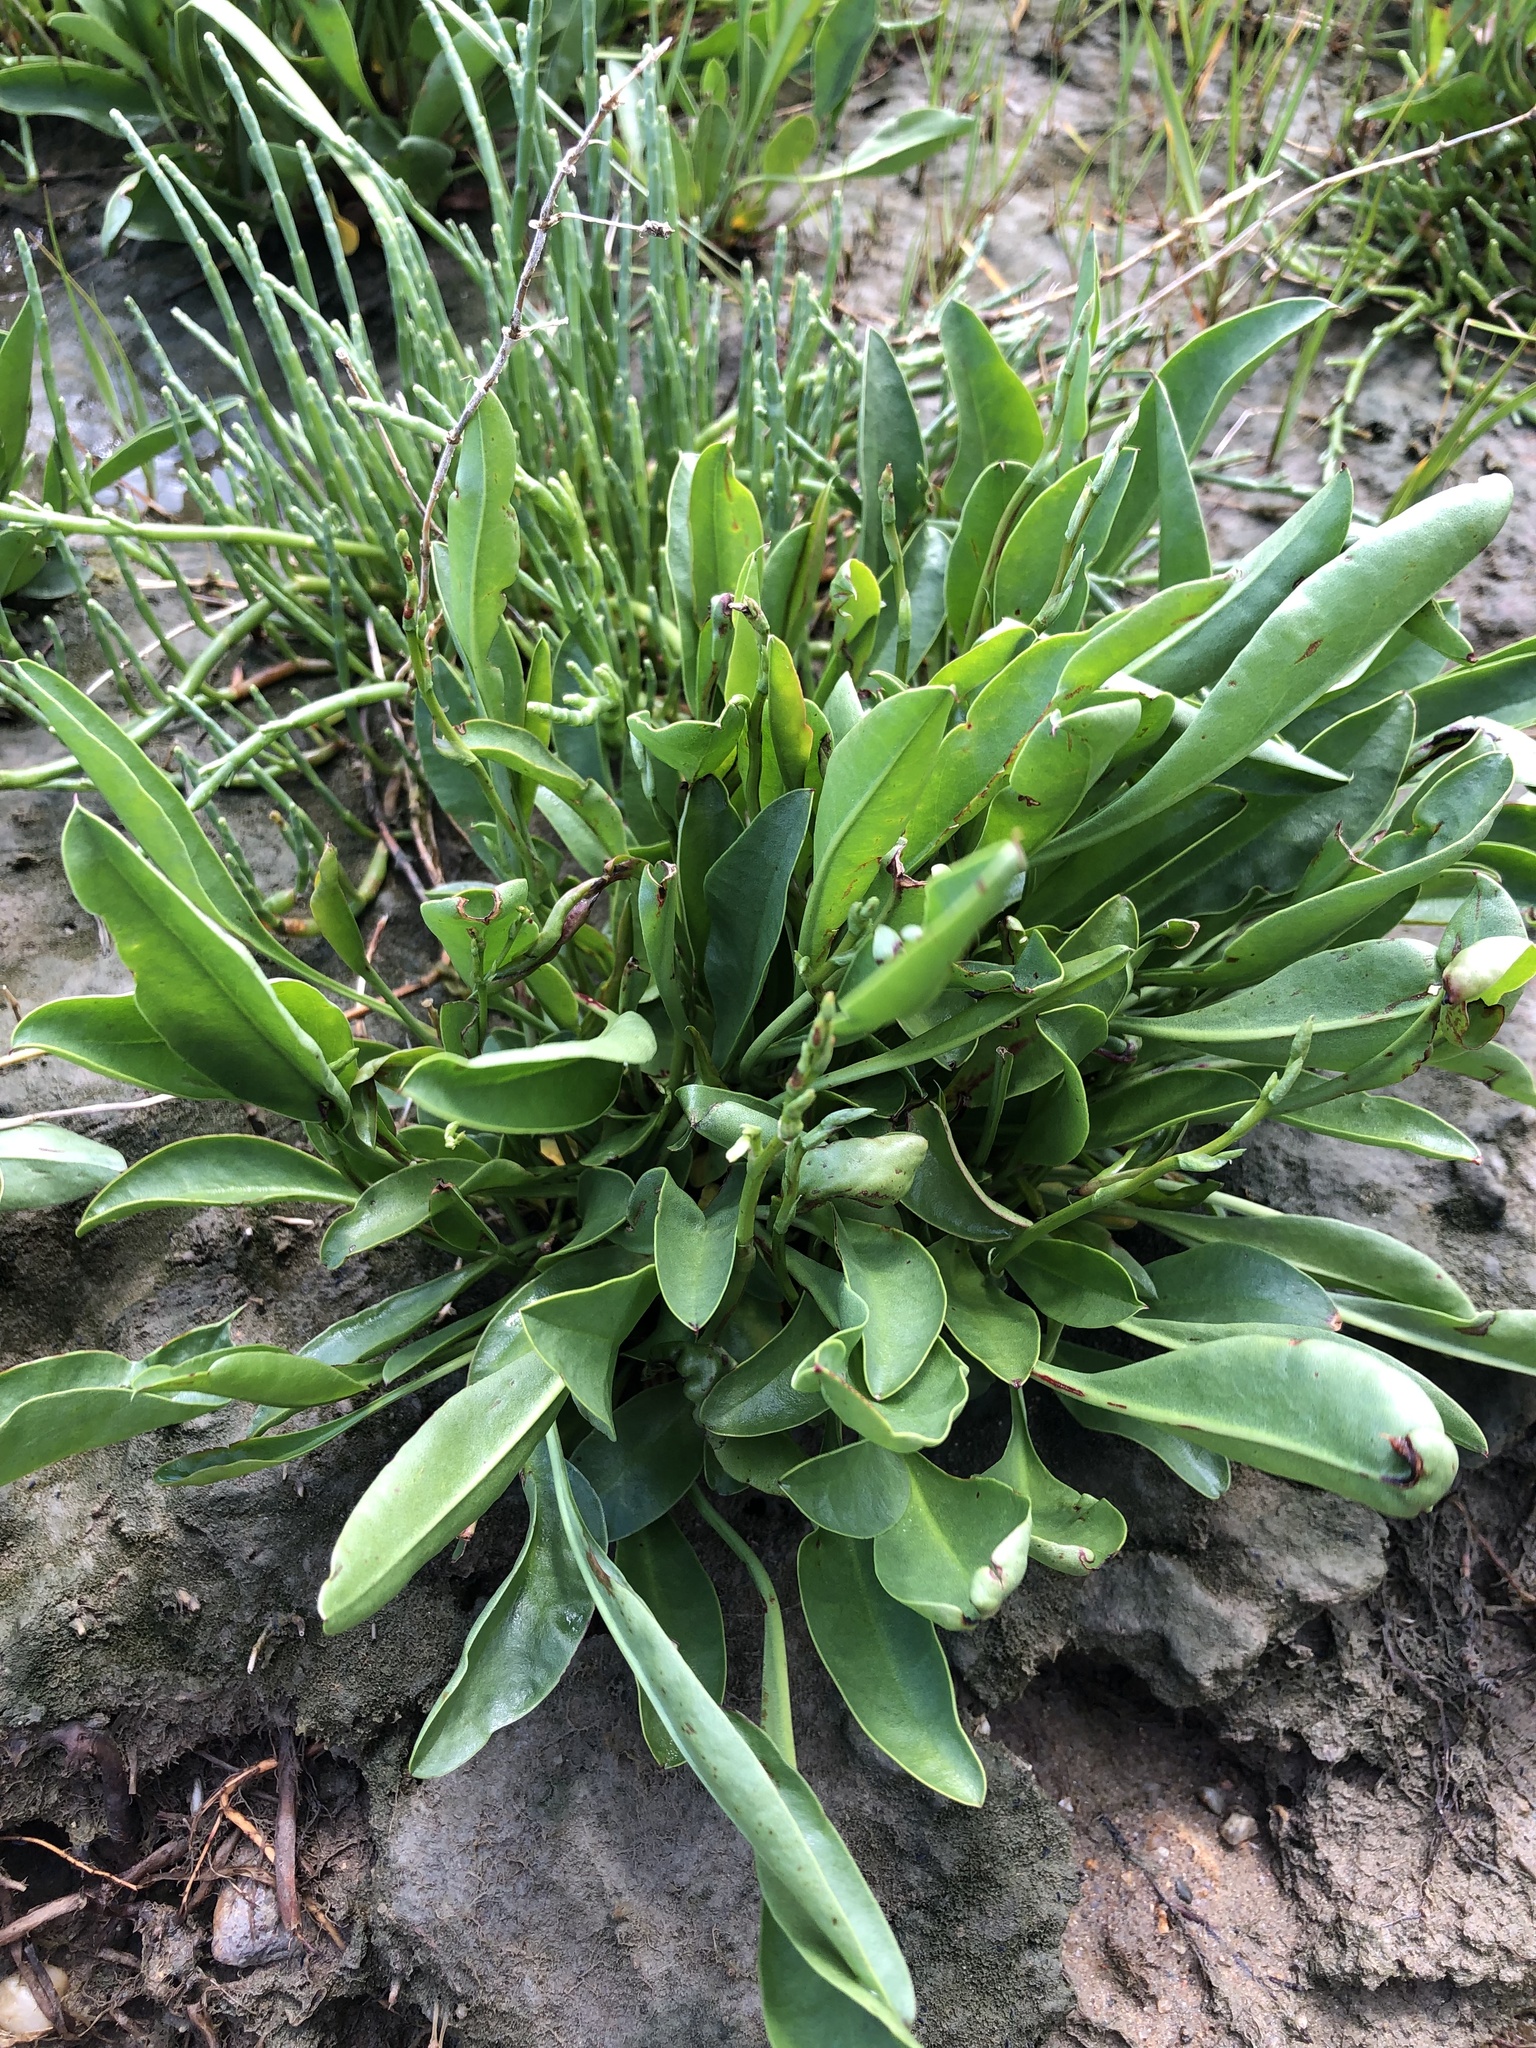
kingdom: Plantae
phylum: Tracheophyta
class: Magnoliopsida
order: Caryophyllales
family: Plumbaginaceae
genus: Limonium
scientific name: Limonium carolinianum
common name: Carolina sea lavender
